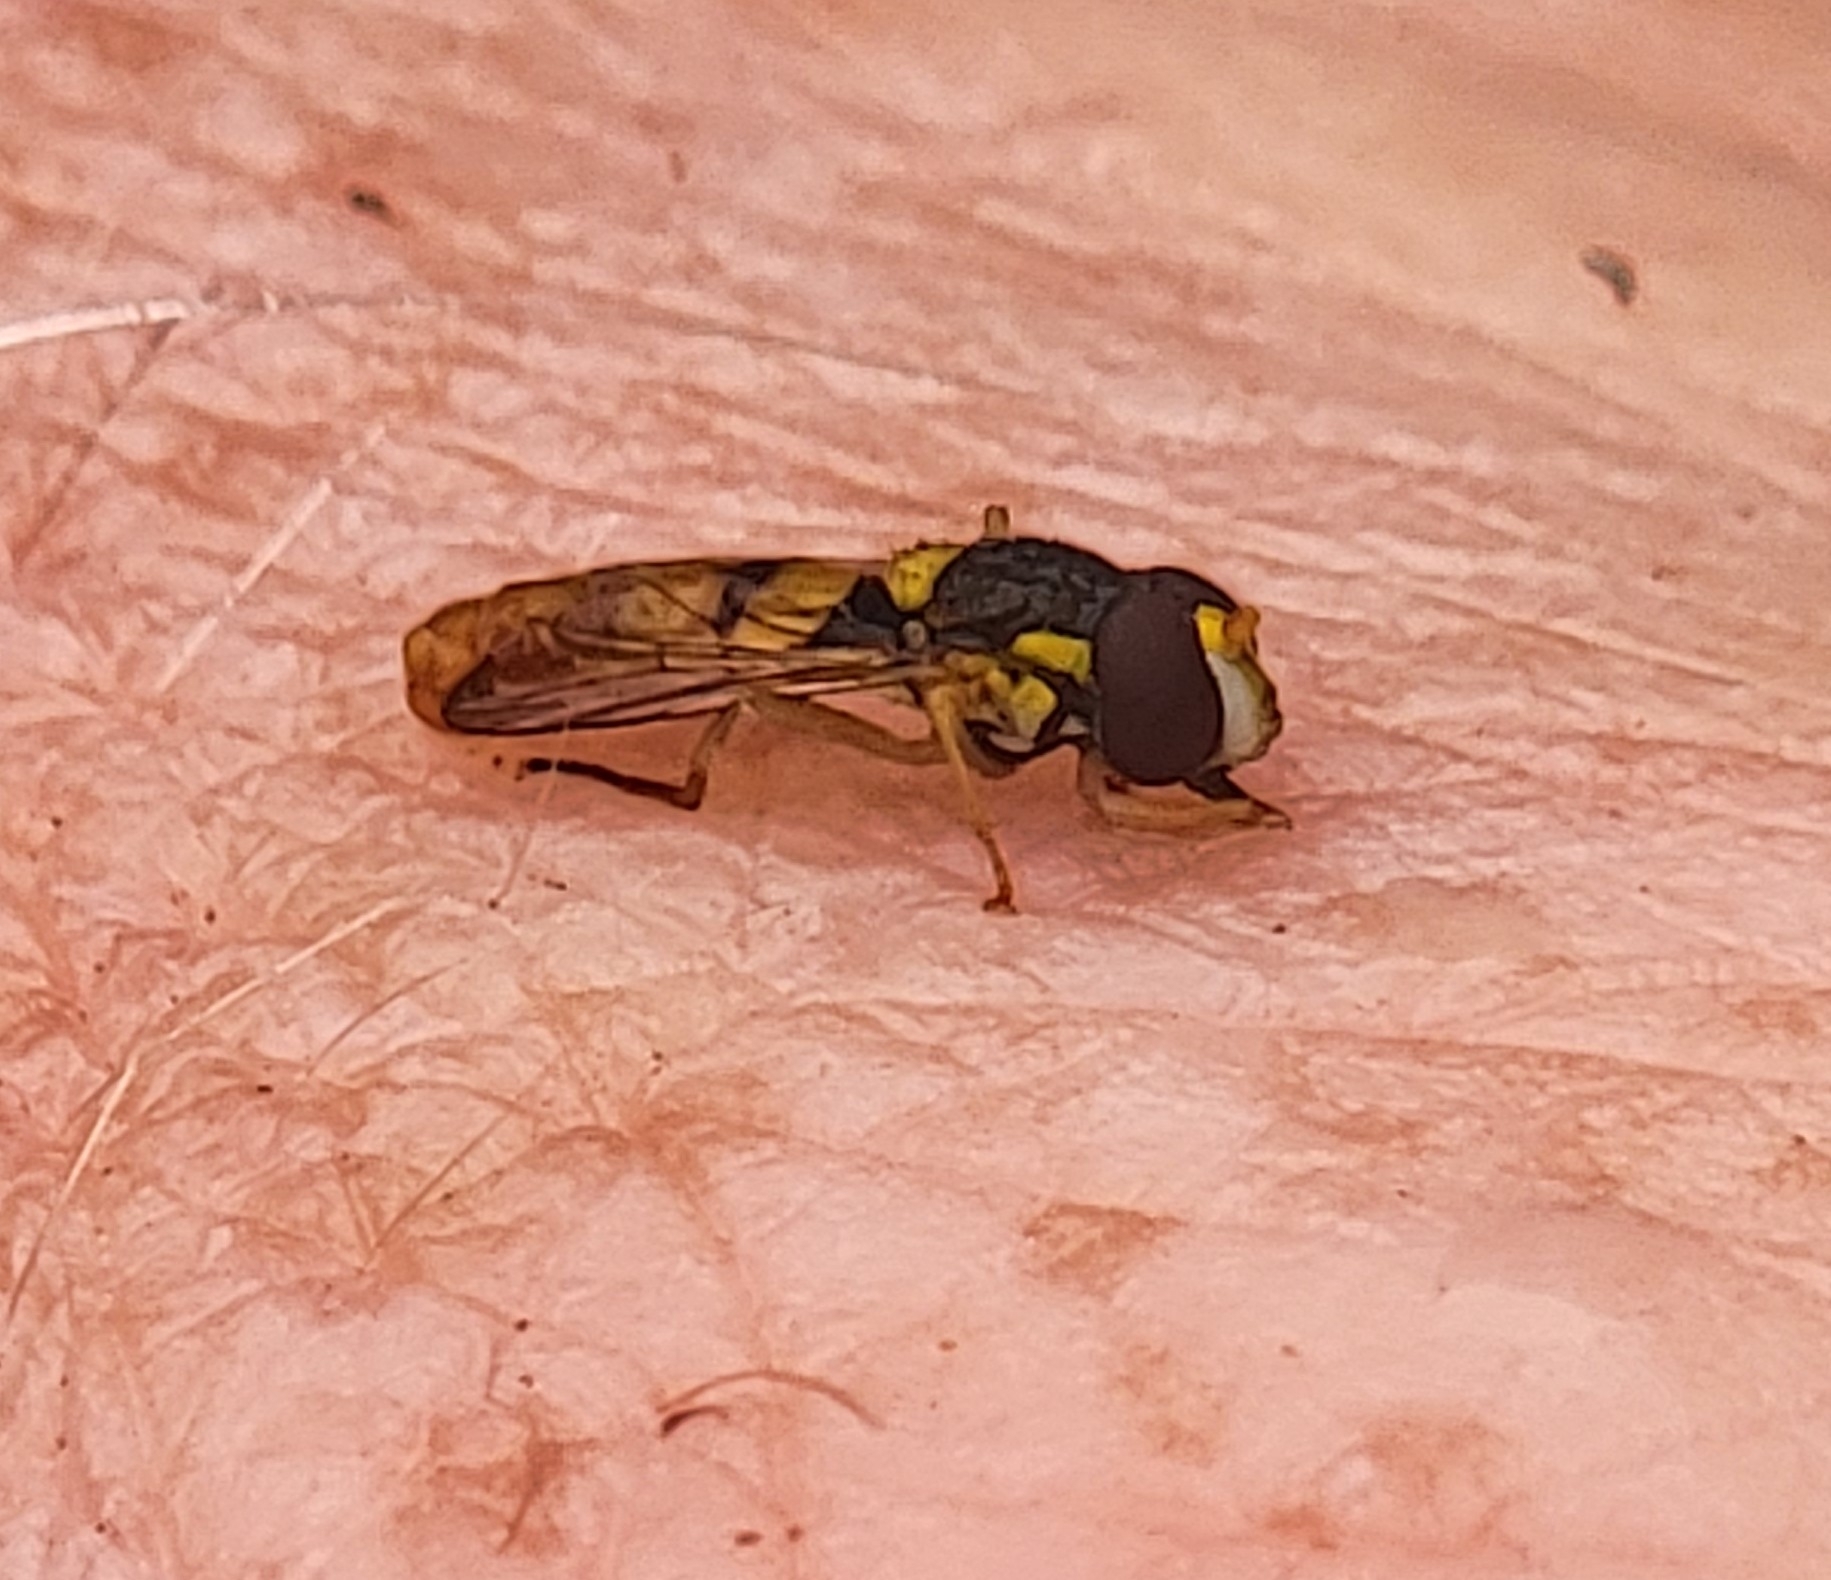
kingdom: Animalia
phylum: Arthropoda
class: Insecta
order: Diptera
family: Syrphidae
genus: Sphaerophoria
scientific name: Sphaerophoria contigua
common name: Tufted globetail
